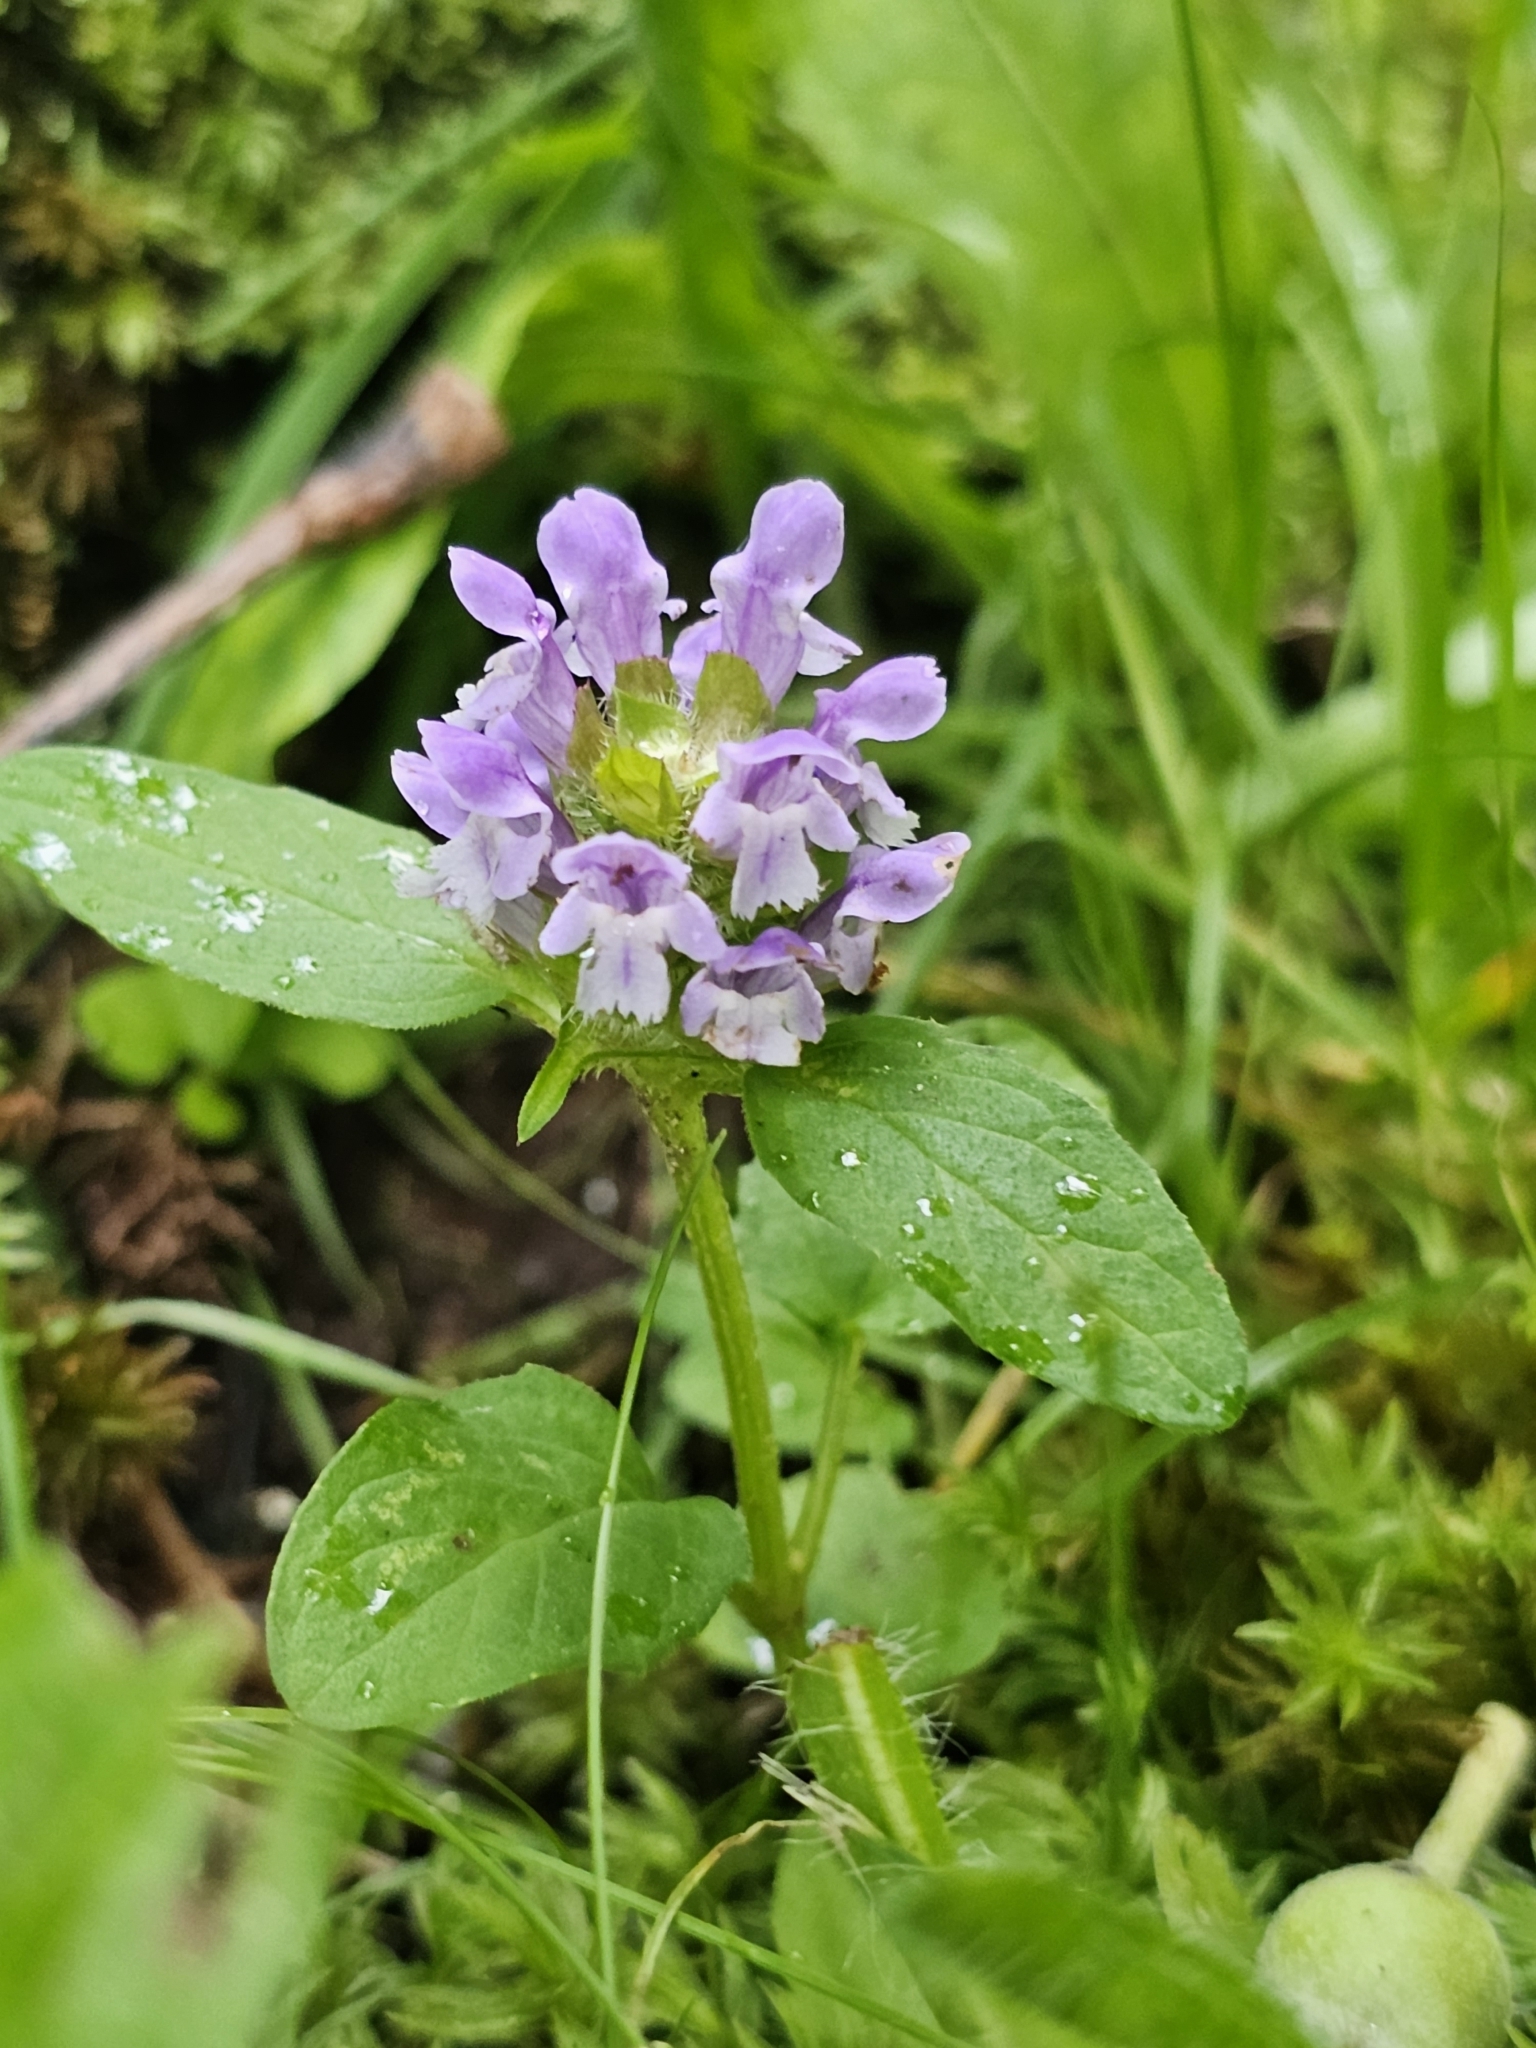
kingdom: Plantae
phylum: Tracheophyta
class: Magnoliopsida
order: Lamiales
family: Lamiaceae
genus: Prunella
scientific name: Prunella vulgaris
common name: Heal-all
